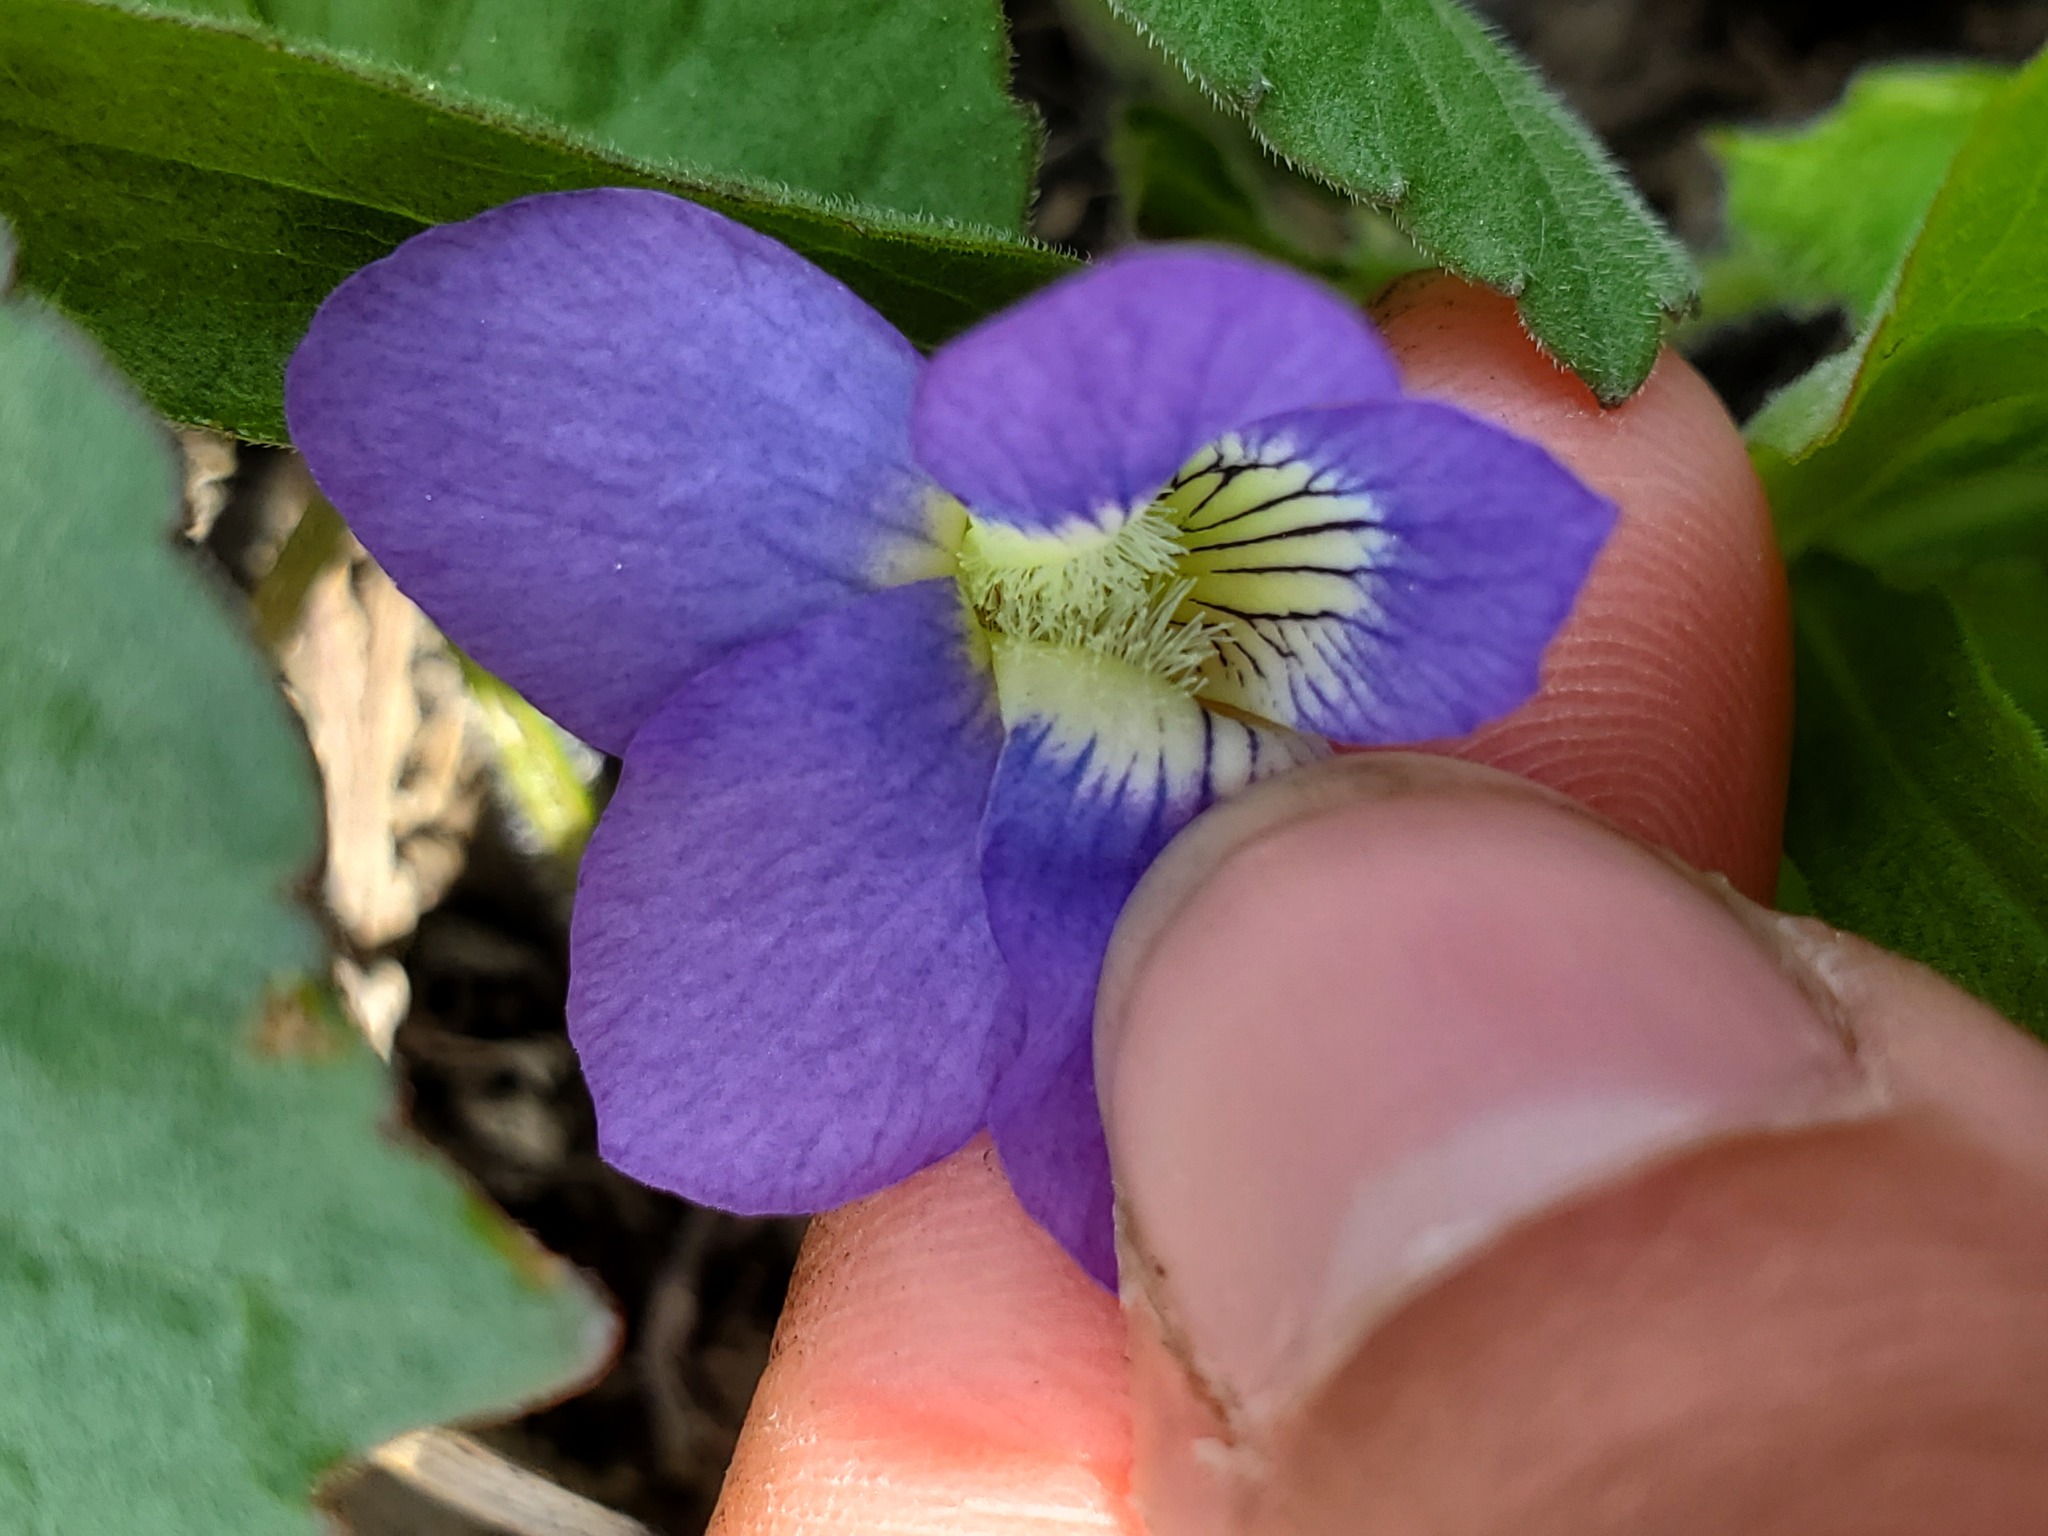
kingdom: Plantae
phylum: Tracheophyta
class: Magnoliopsida
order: Malpighiales
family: Violaceae
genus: Viola
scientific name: Viola sororia
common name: Dooryard violet
